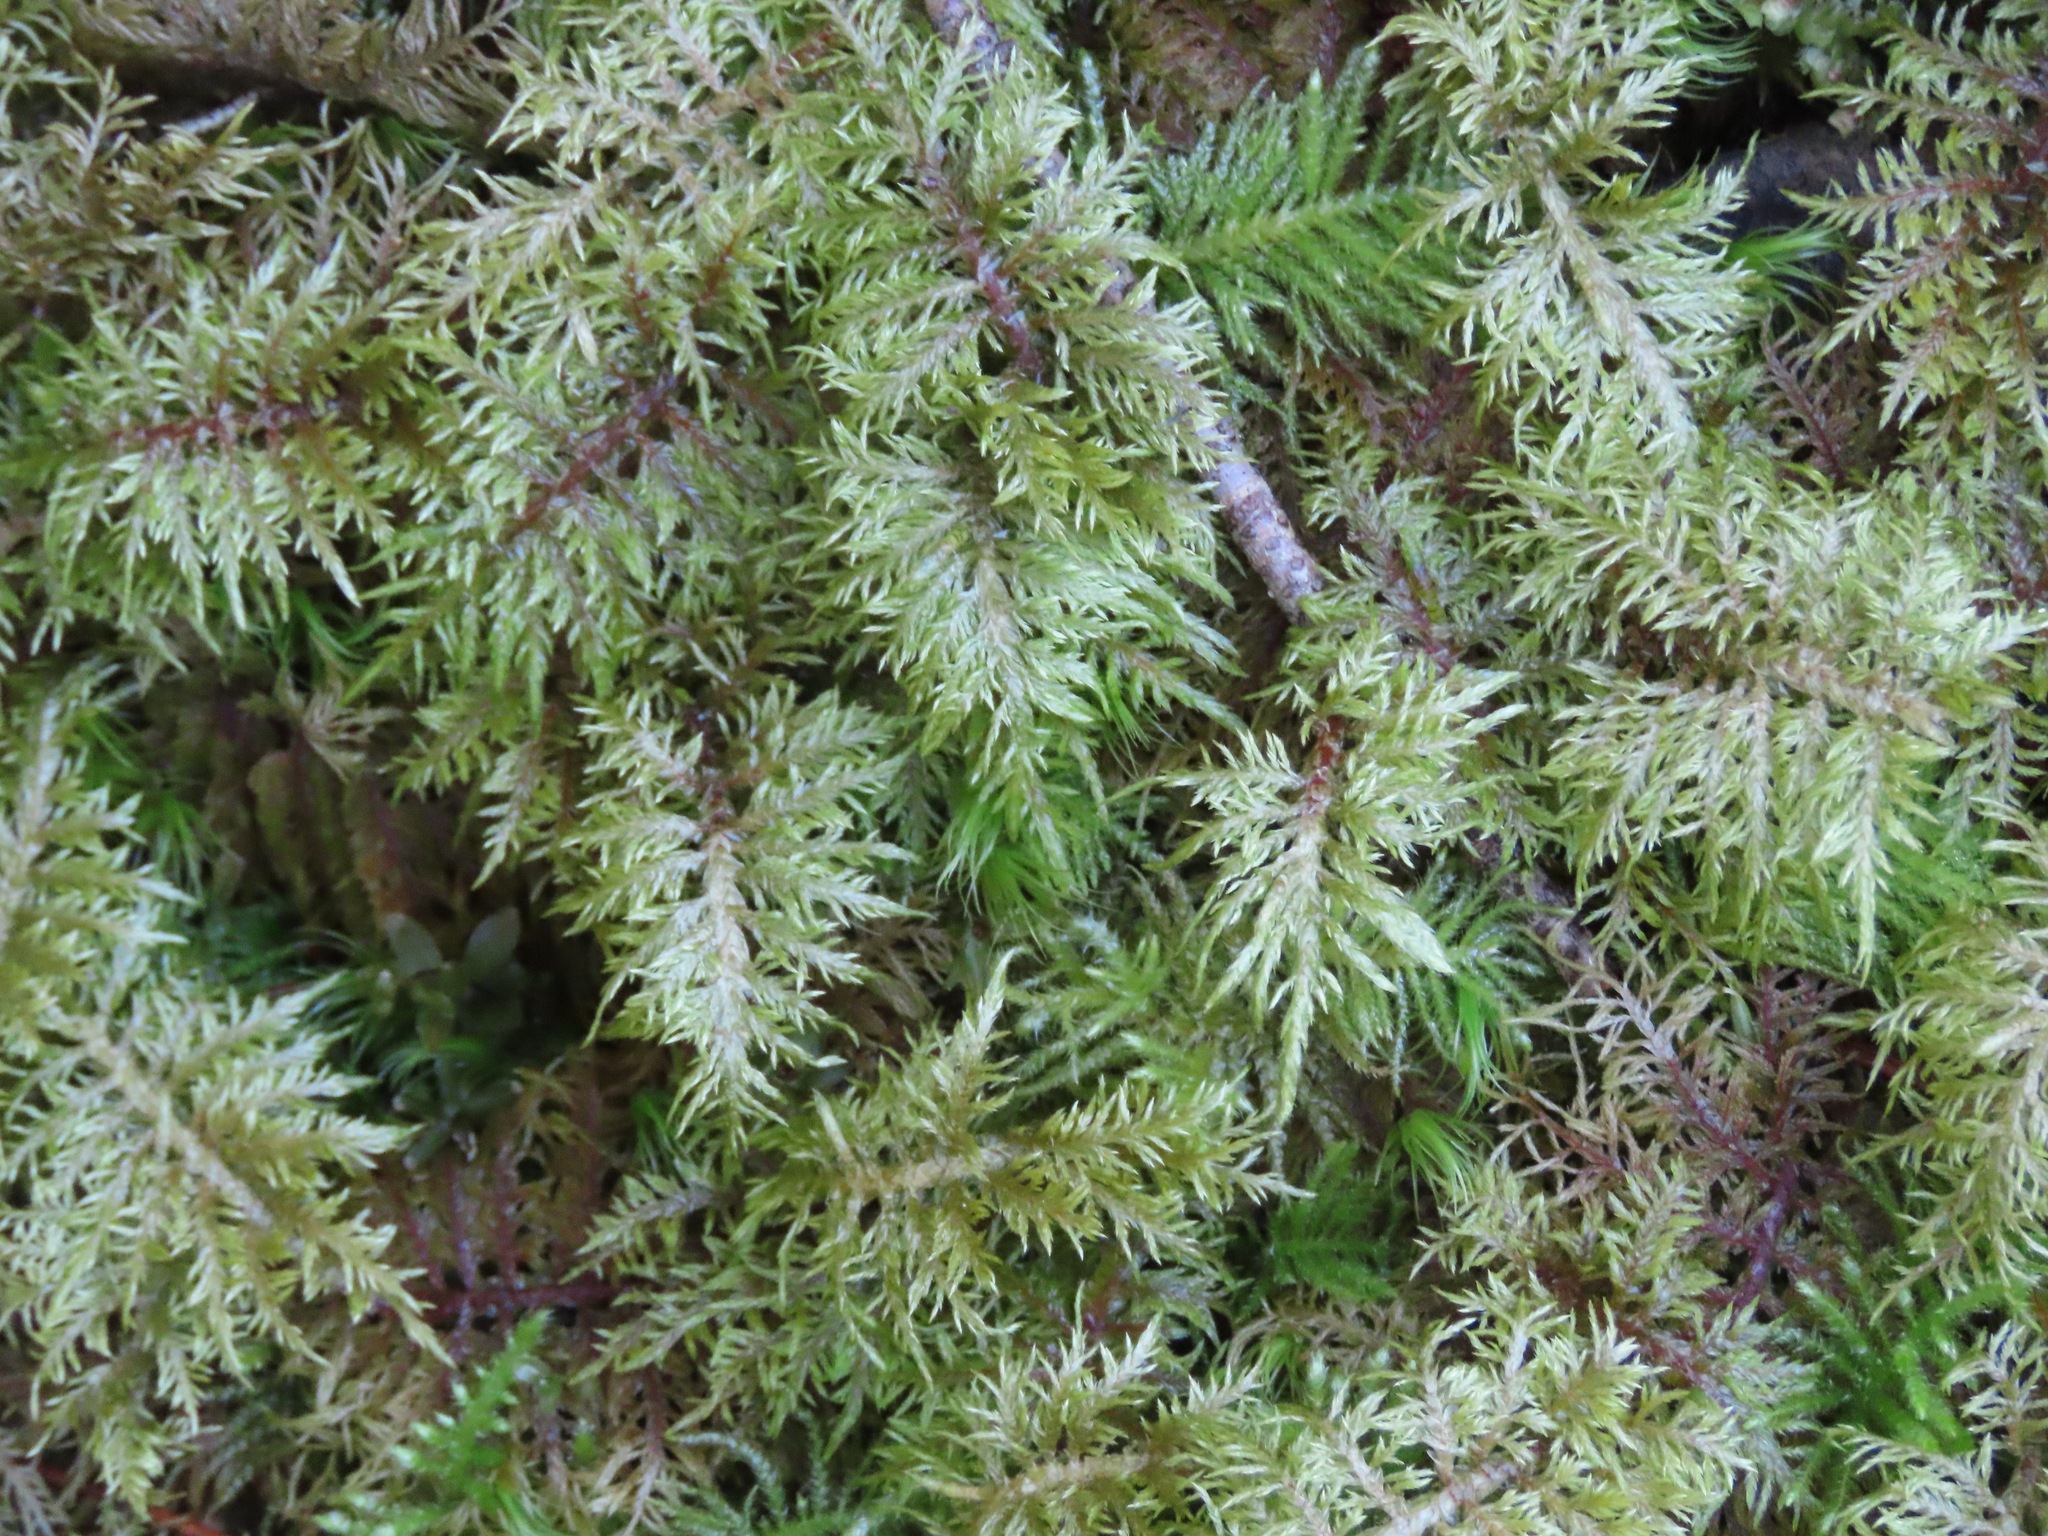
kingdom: Plantae
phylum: Bryophyta
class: Bryopsida
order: Hypnales
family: Hylocomiaceae
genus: Hylocomium
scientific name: Hylocomium splendens
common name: Stairstep moss
